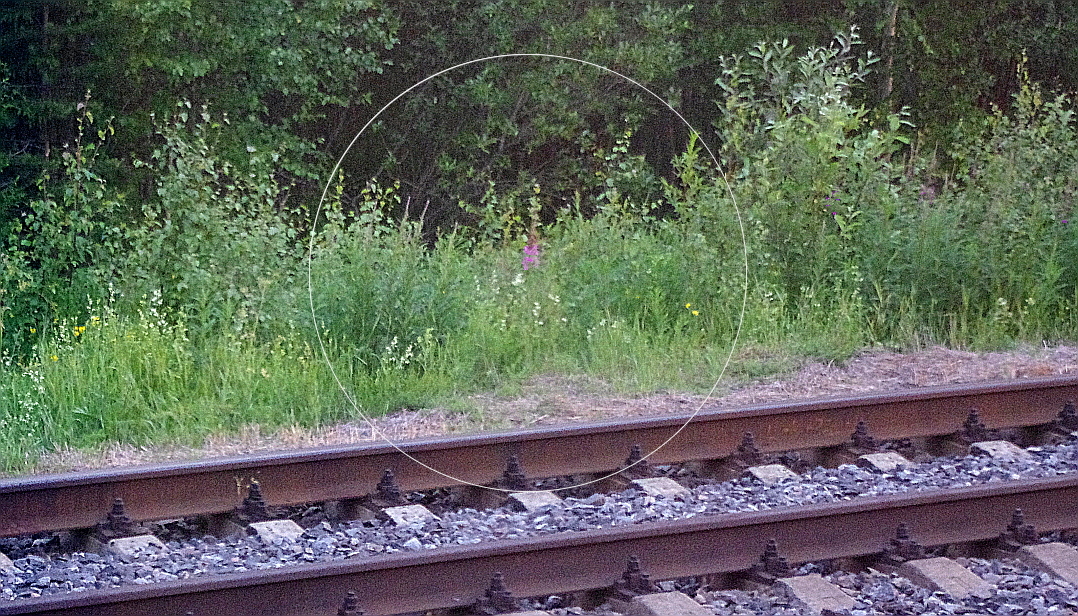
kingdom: Plantae
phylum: Tracheophyta
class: Magnoliopsida
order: Myrtales
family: Onagraceae
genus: Chamaenerion
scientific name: Chamaenerion angustifolium
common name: Fireweed
